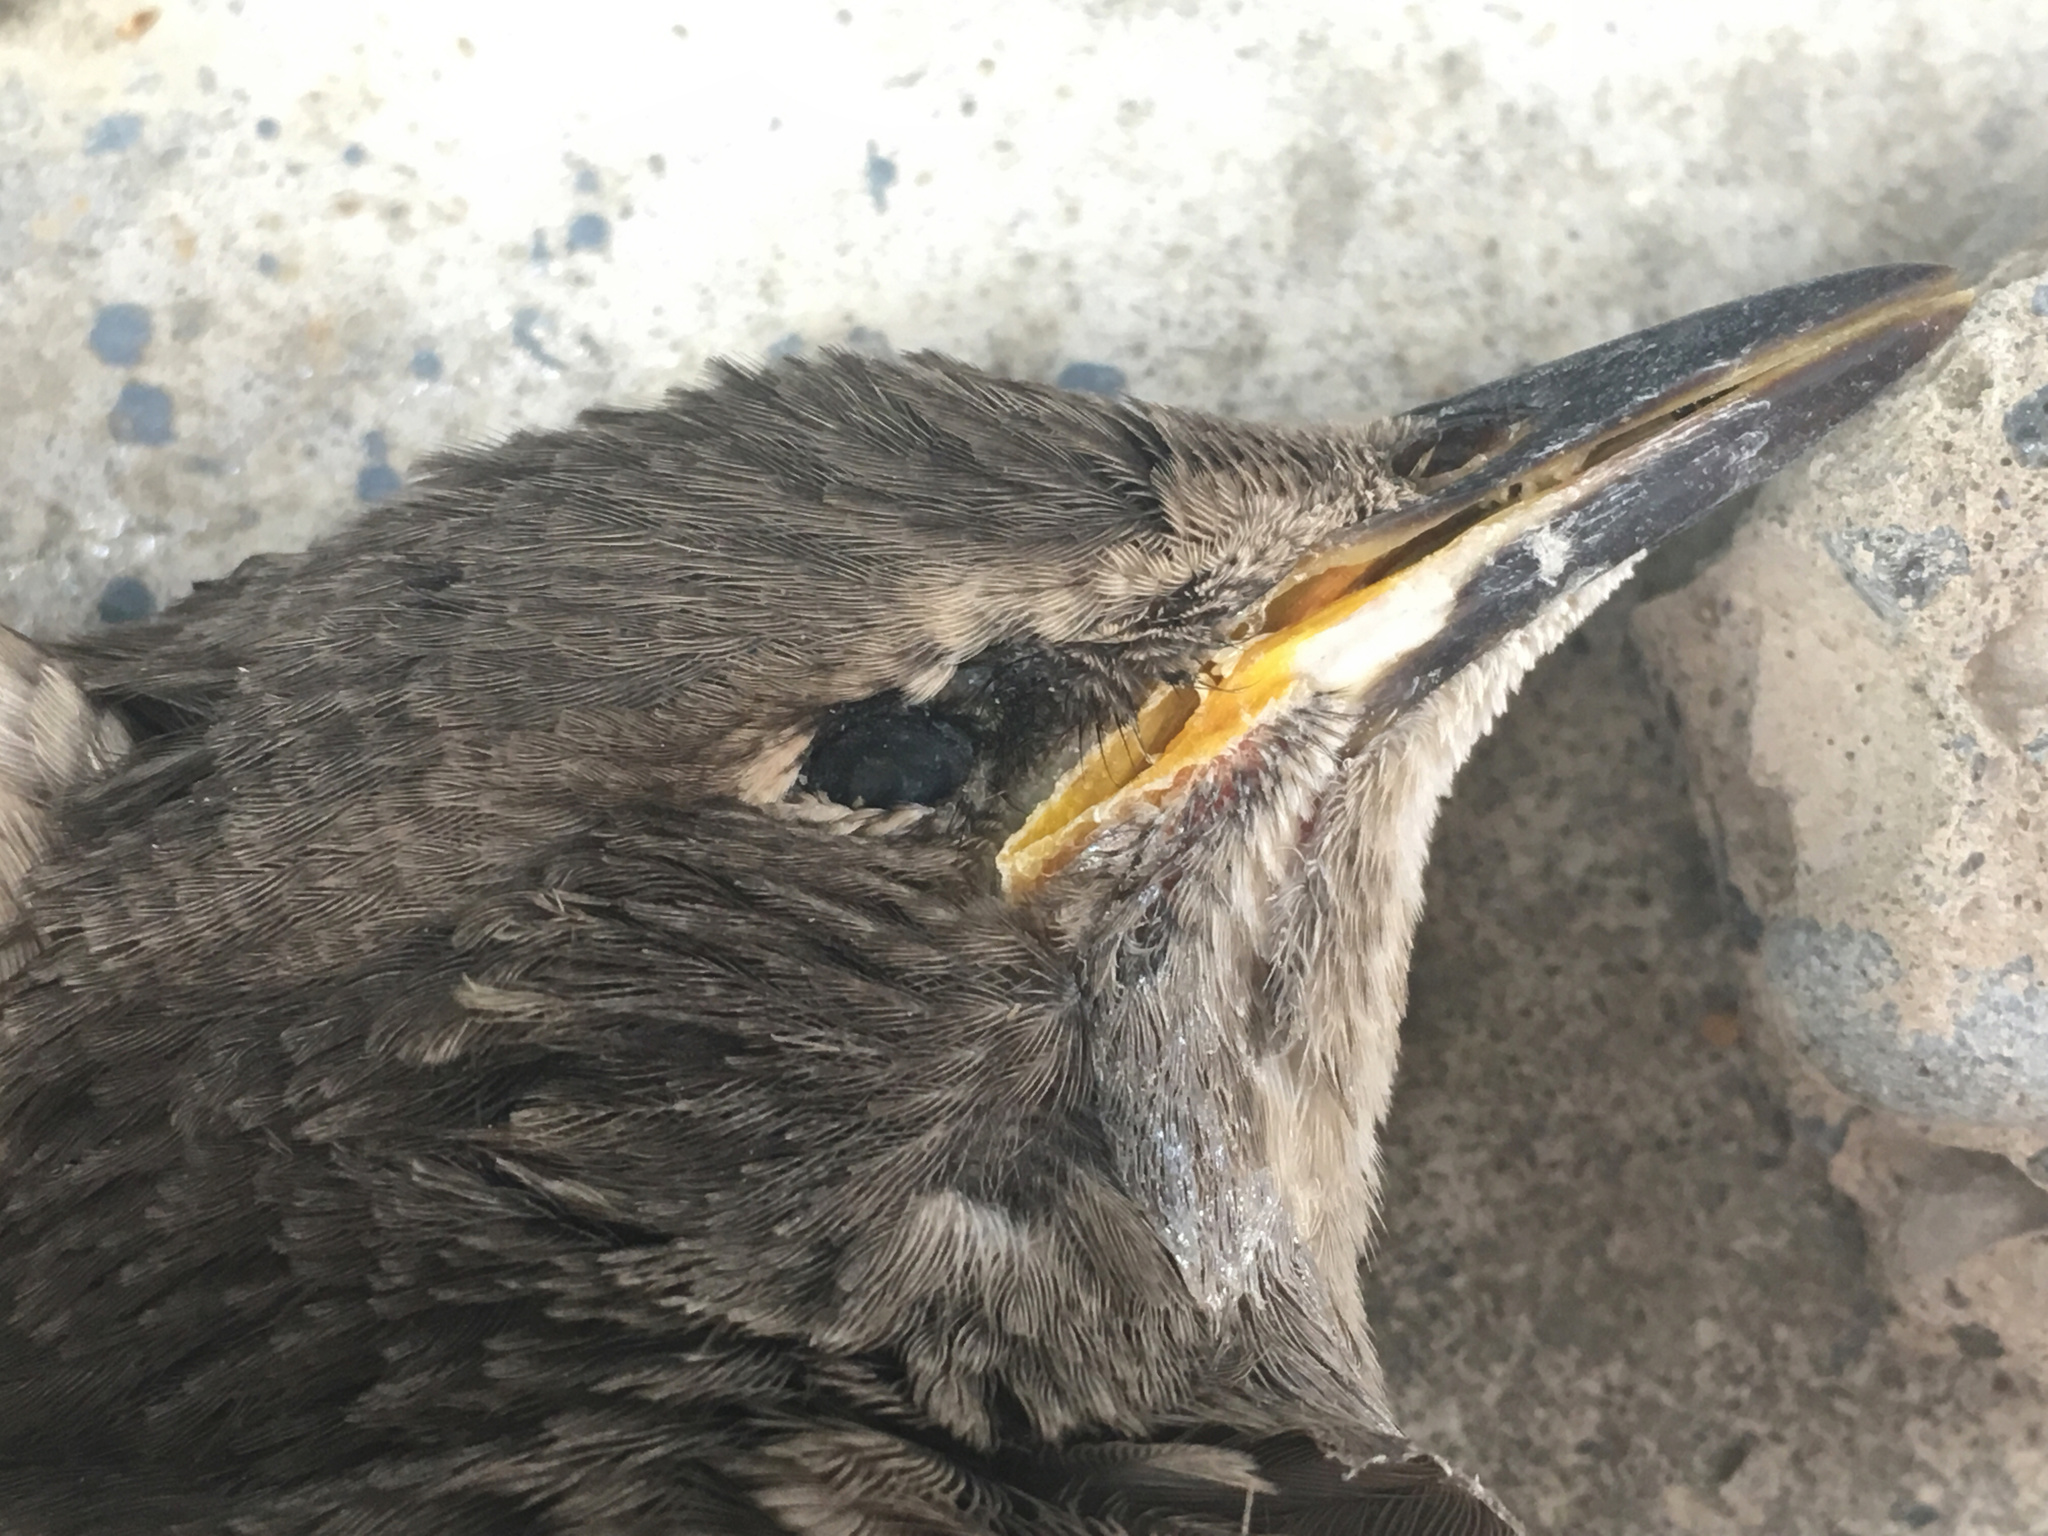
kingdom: Animalia
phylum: Chordata
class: Aves
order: Passeriformes
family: Sturnidae
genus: Sturnus
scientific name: Sturnus vulgaris
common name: Common starling
